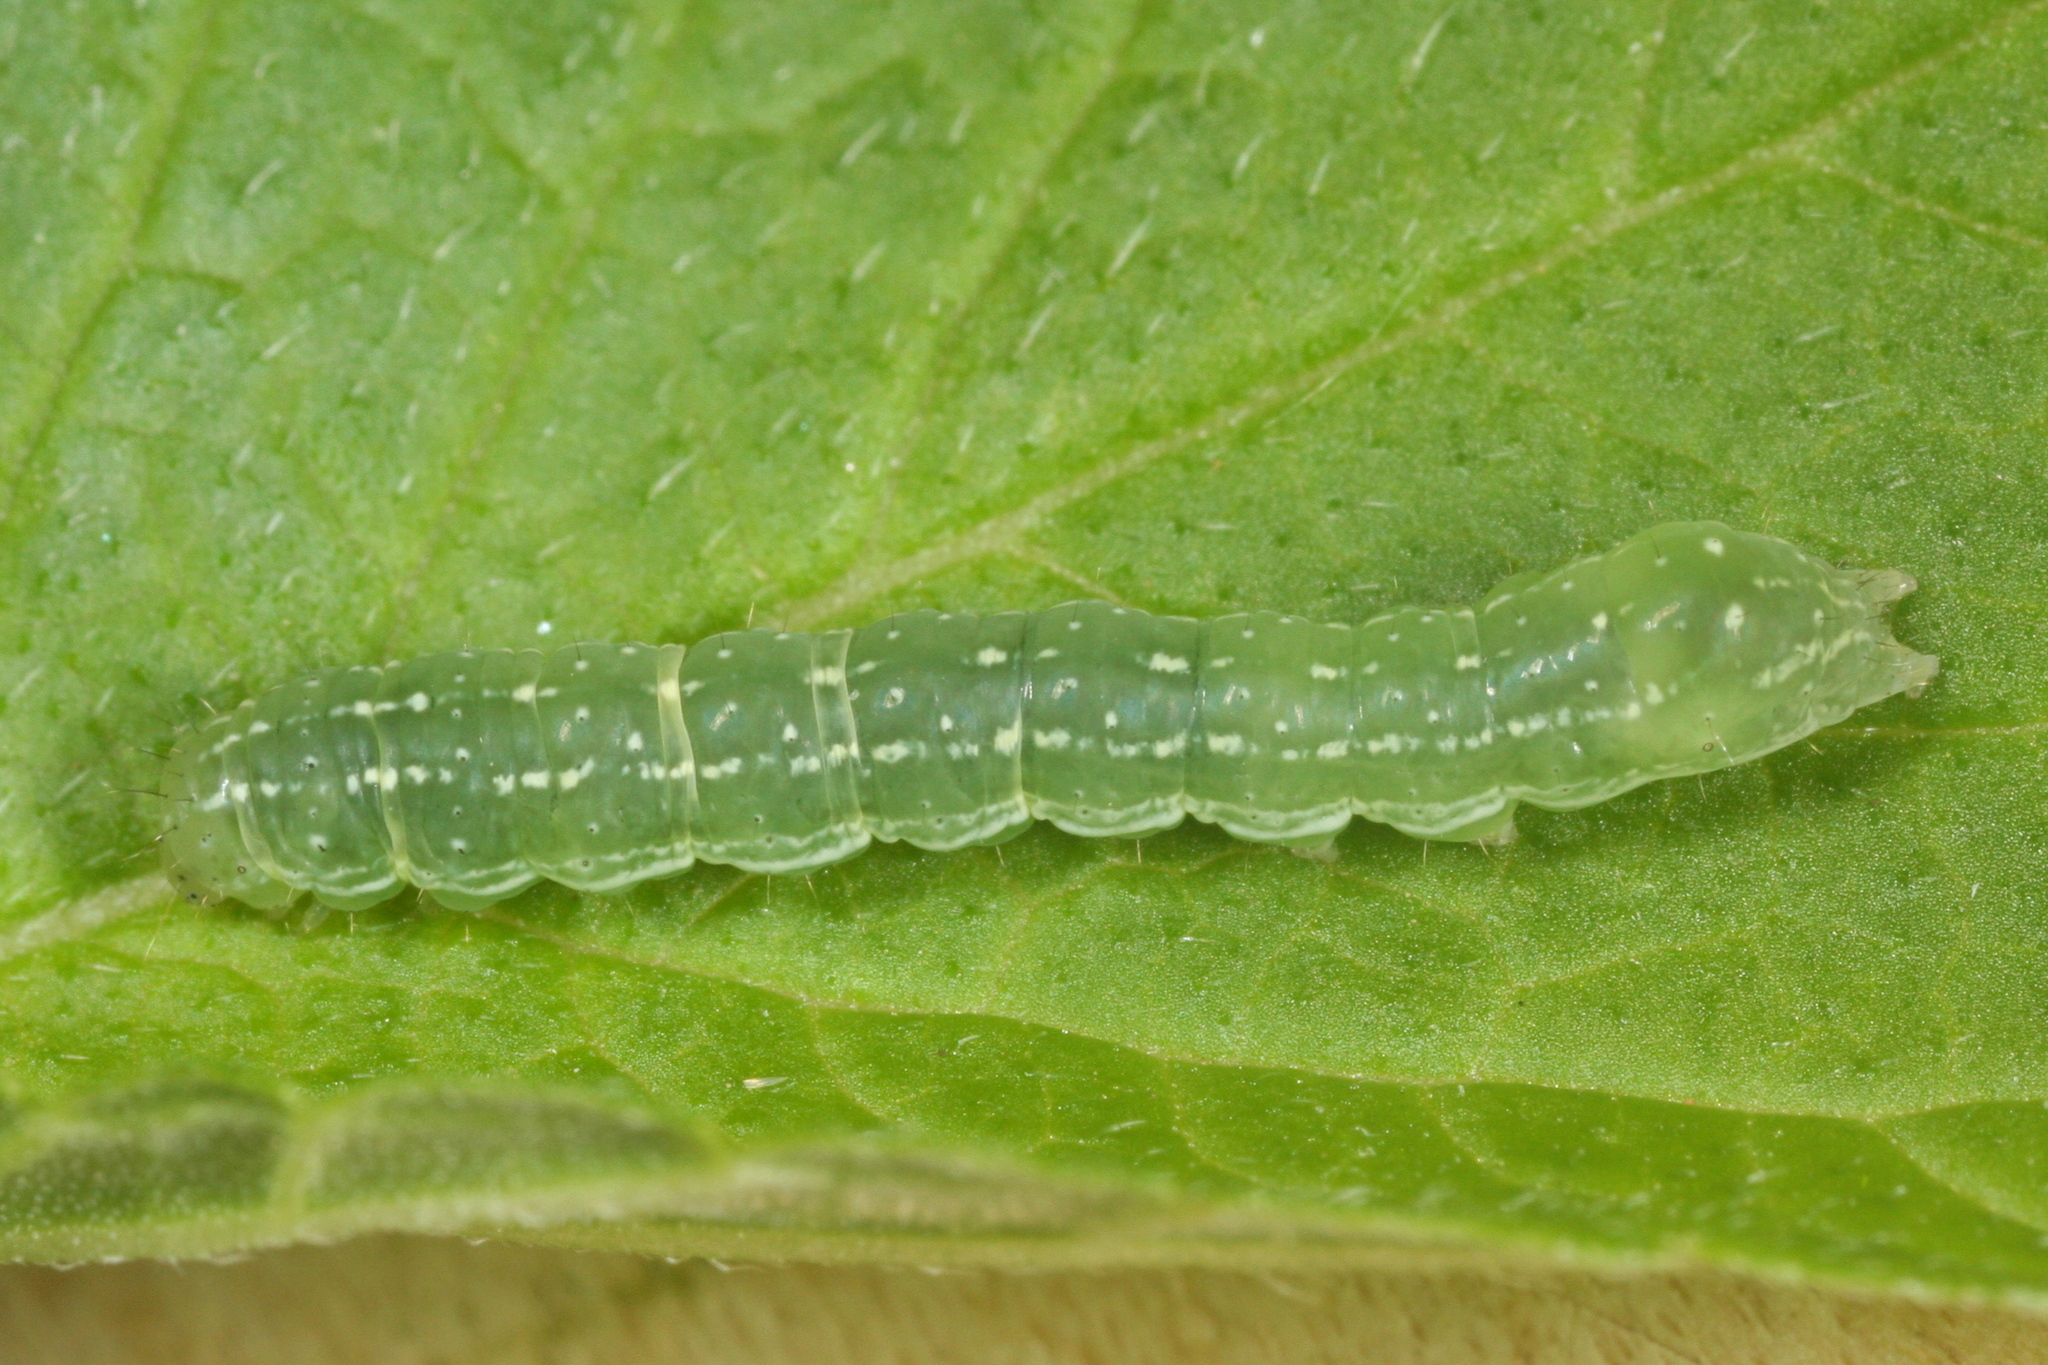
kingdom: Animalia
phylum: Arthropoda
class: Insecta
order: Lepidoptera
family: Noctuidae
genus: Euplexia
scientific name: Euplexia lucipara
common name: Small angle shades
